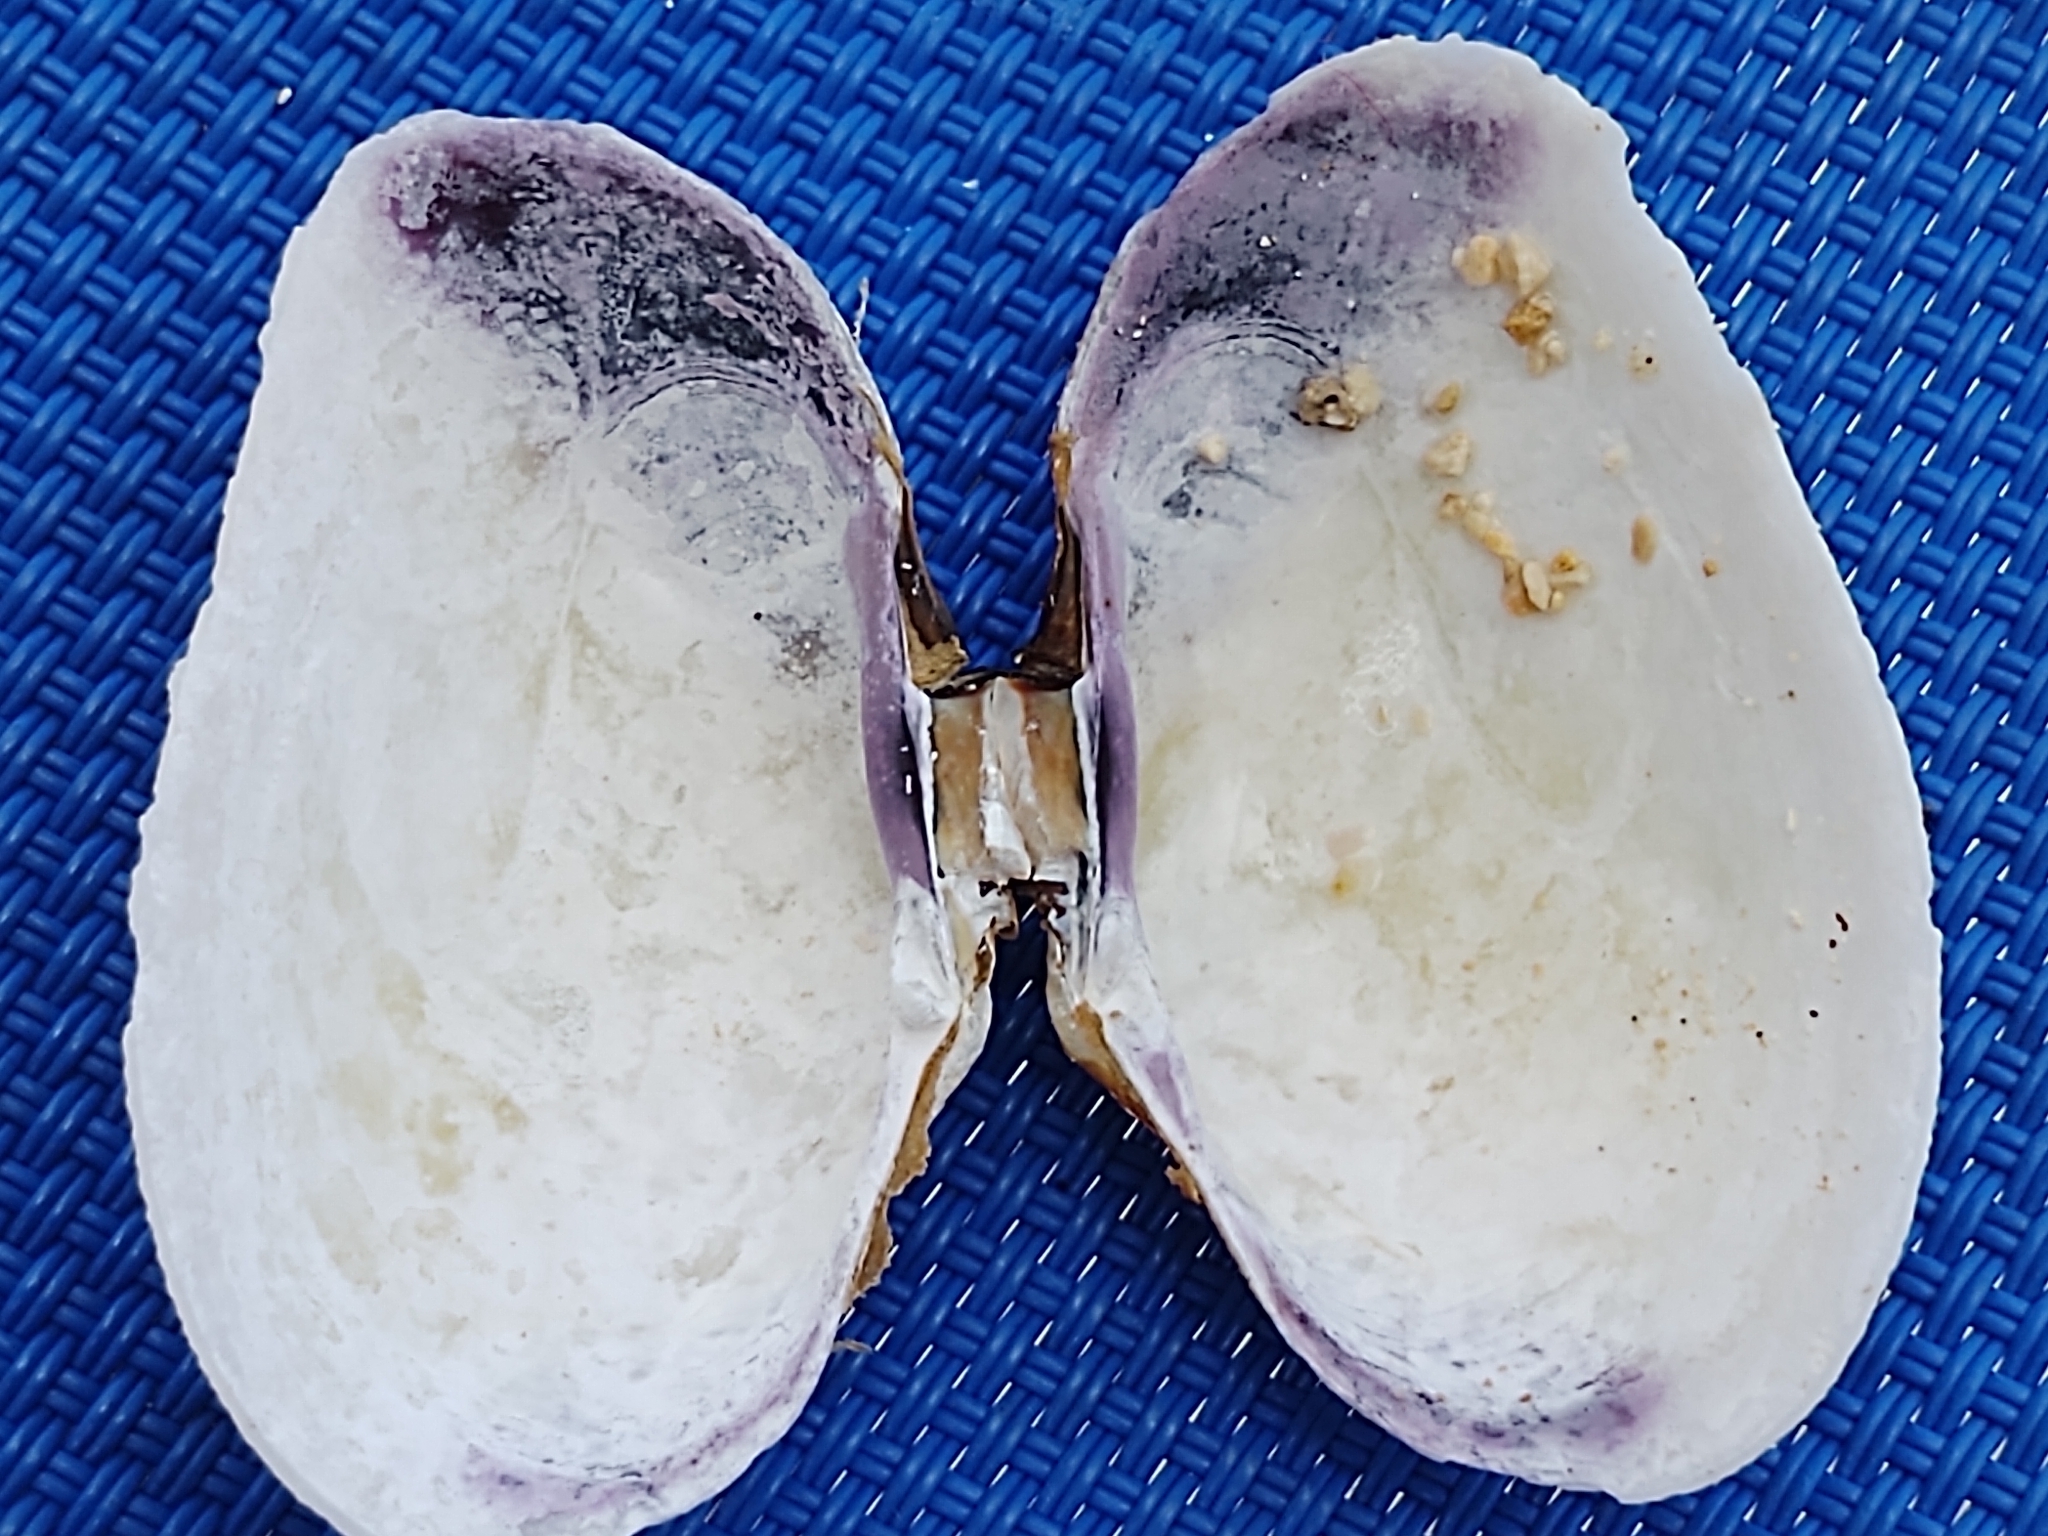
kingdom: Animalia
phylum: Mollusca
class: Bivalvia
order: Cardiida
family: Psammobiidae
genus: Asaphis
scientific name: Asaphis deflorata
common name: Gaudy asaphis
